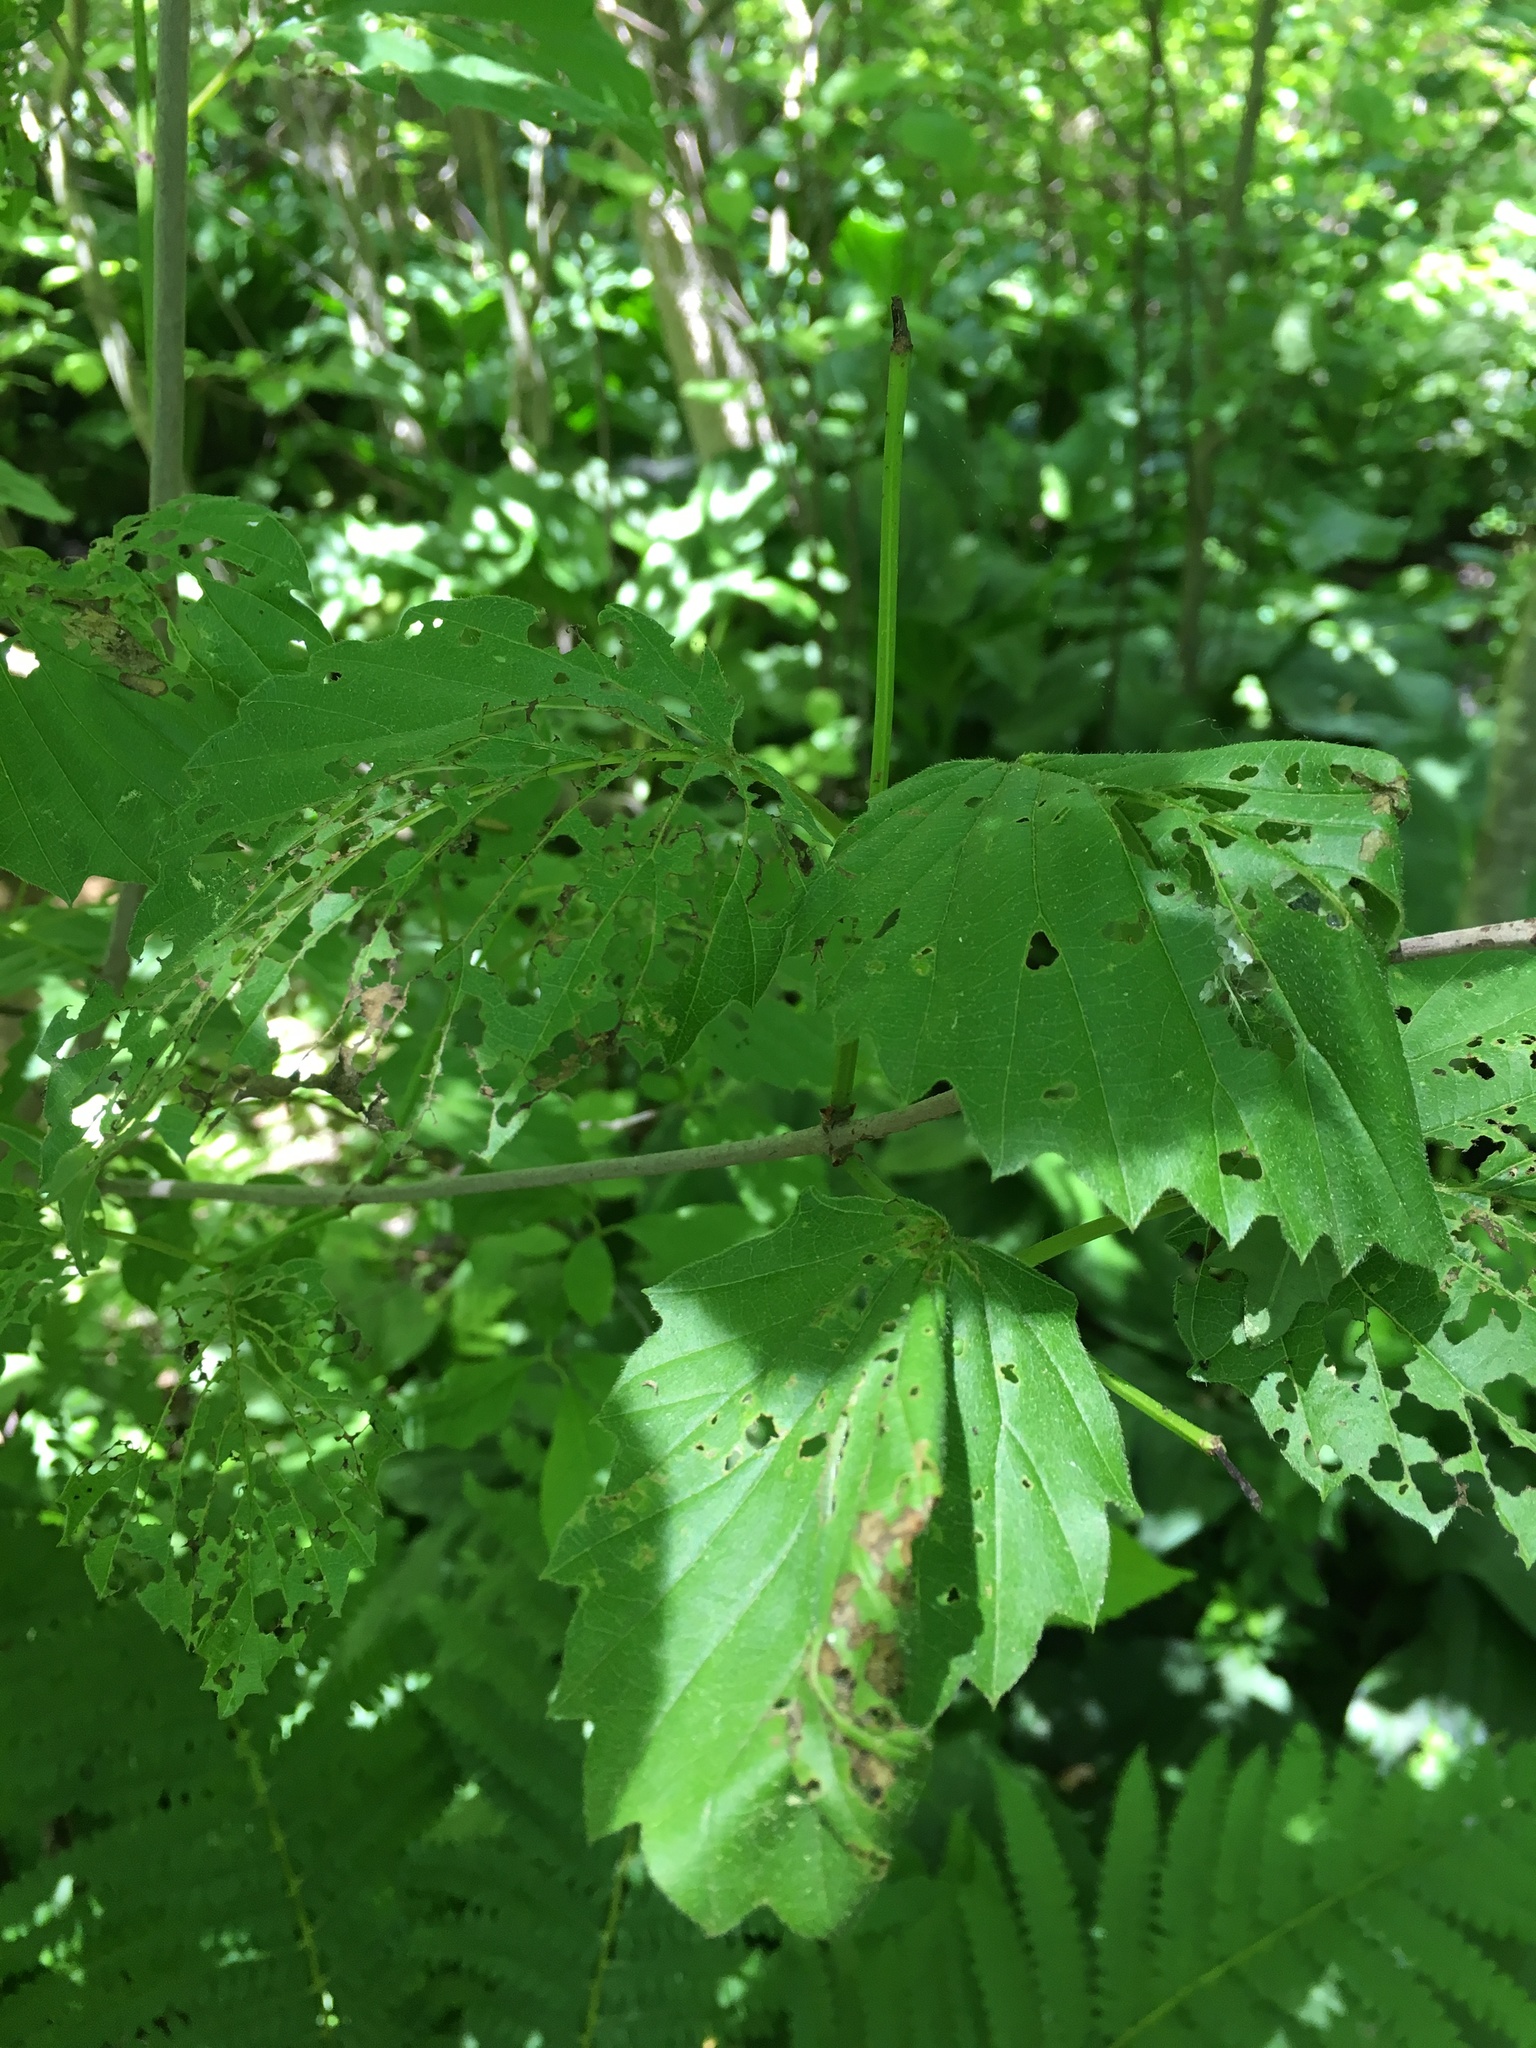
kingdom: Plantae
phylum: Tracheophyta
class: Magnoliopsida
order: Dipsacales
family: Viburnaceae
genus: Viburnum
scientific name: Viburnum dentatum
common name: Arrow-wood
